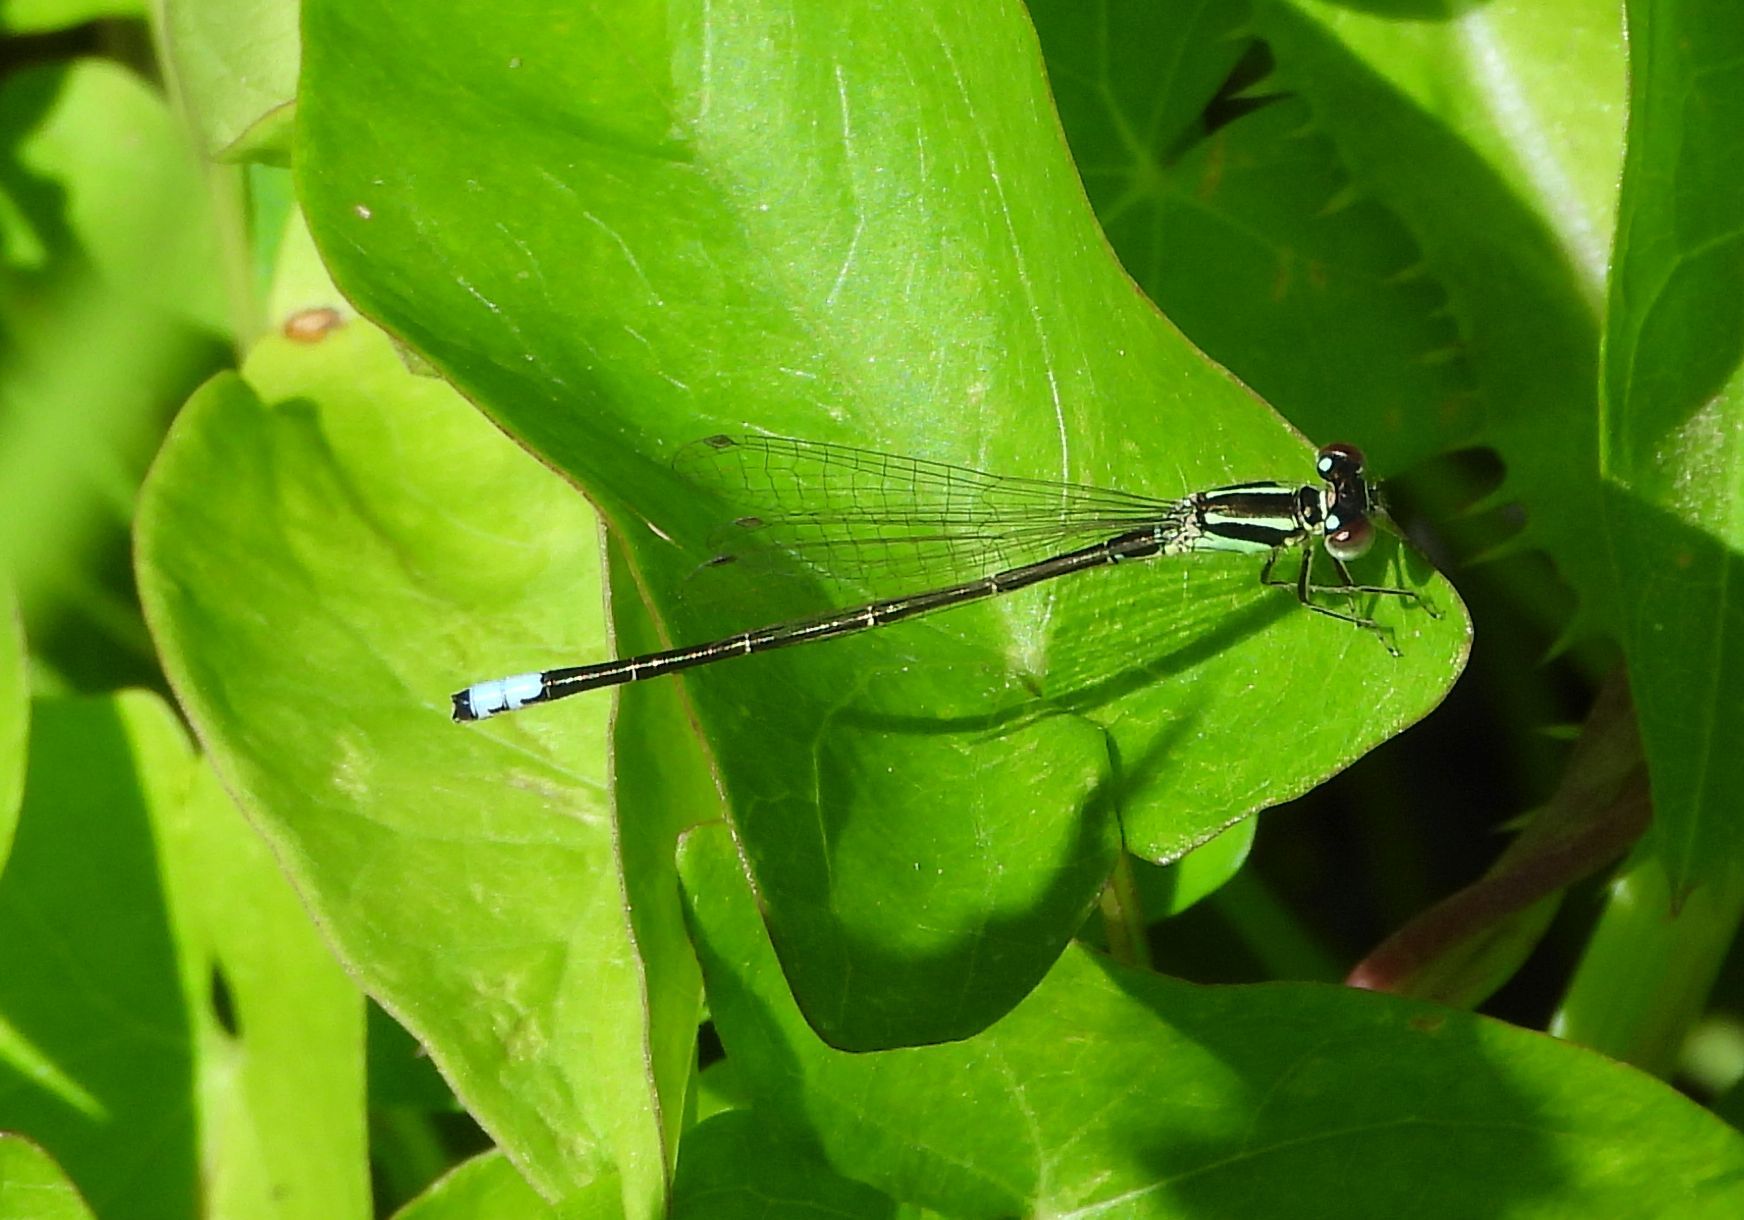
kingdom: Animalia
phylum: Arthropoda
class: Insecta
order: Odonata
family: Coenagrionidae
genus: Ischnura
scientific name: Ischnura verticalis
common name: Eastern forktail
